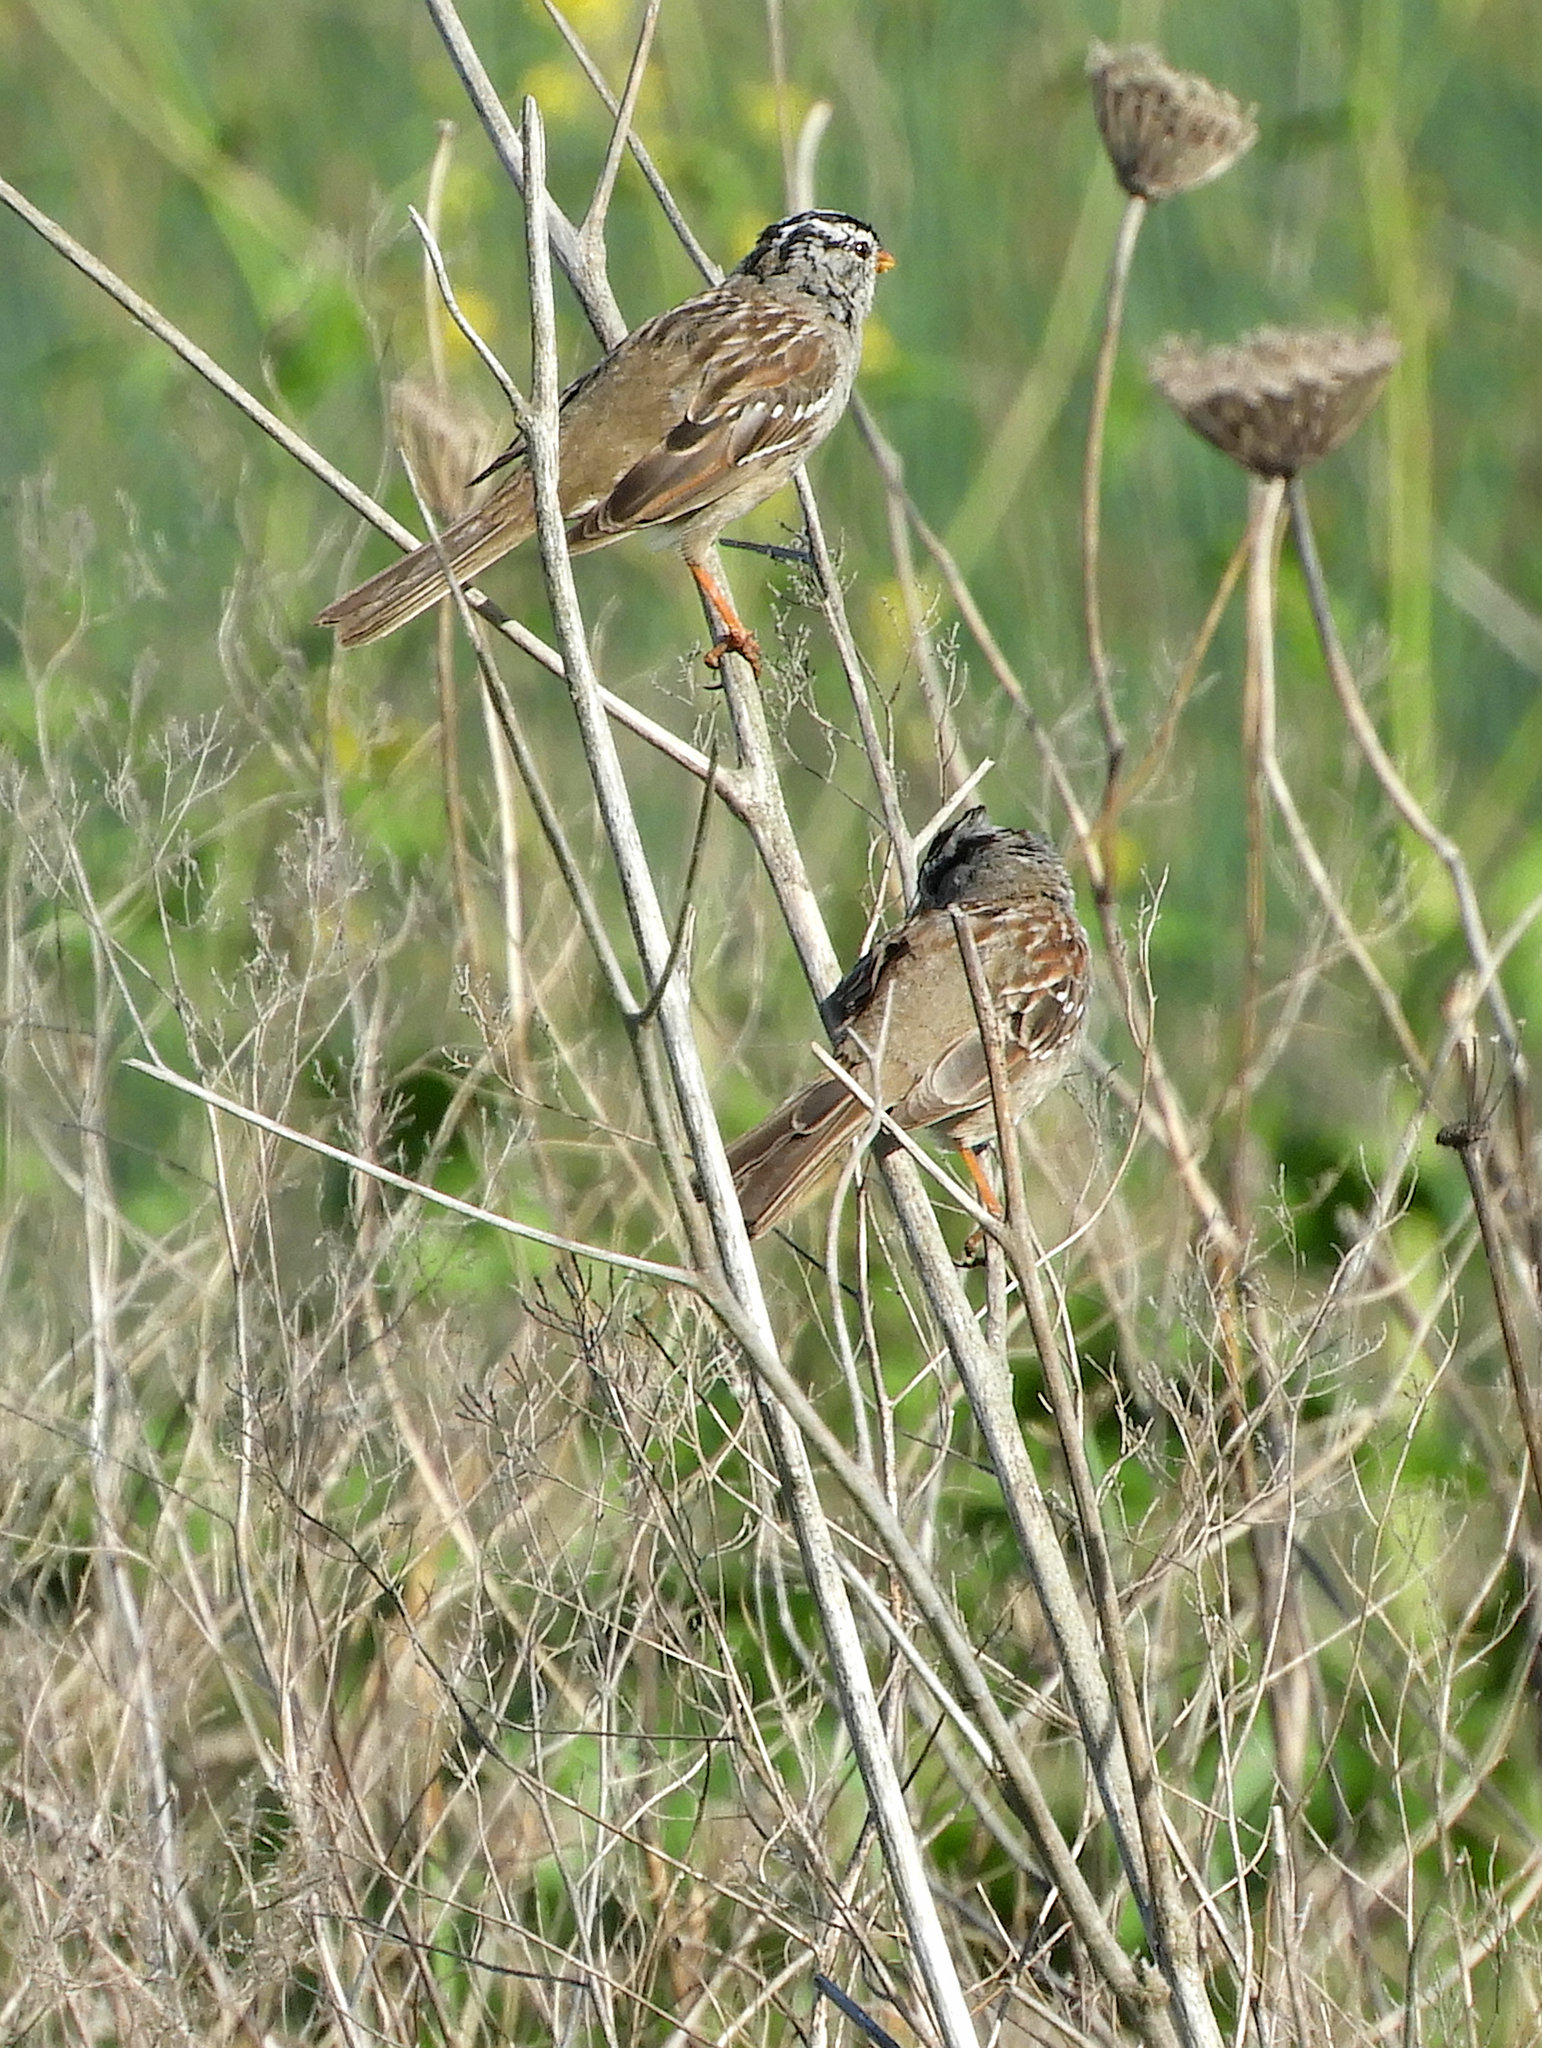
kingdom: Animalia
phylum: Chordata
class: Aves
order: Passeriformes
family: Passerellidae
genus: Zonotrichia
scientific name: Zonotrichia leucophrys
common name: White-crowned sparrow
